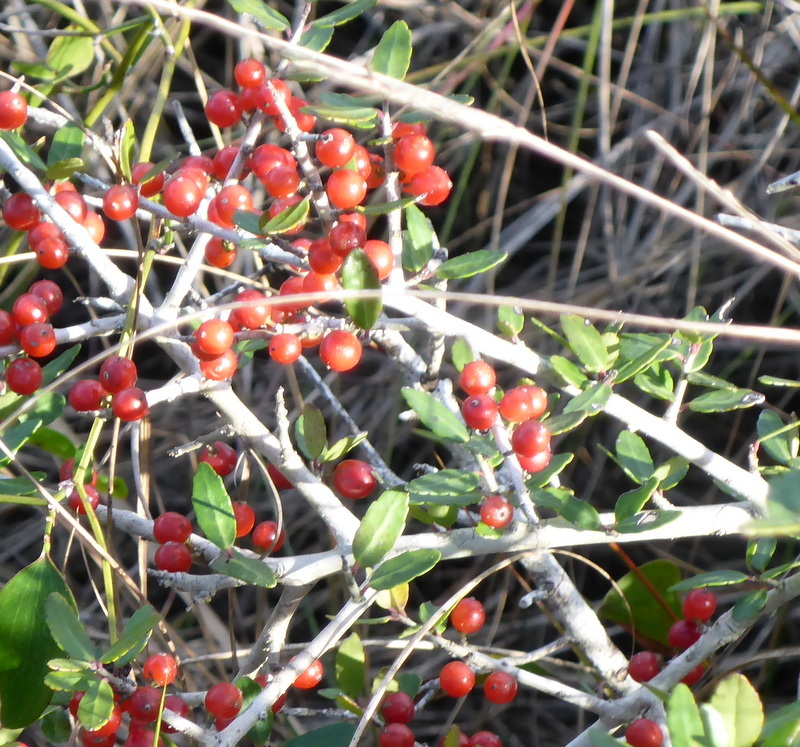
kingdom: Plantae
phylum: Tracheophyta
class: Magnoliopsida
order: Aquifoliales
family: Aquifoliaceae
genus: Ilex
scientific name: Ilex vomitoria
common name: Yaupon holly
